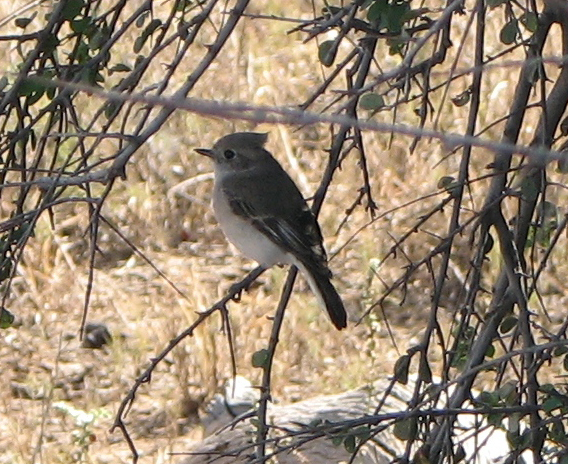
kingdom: Animalia
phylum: Chordata
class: Aves
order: Passeriformes
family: Petroicidae
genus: Petroica
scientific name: Petroica goodenovii
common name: Red-capped robin
